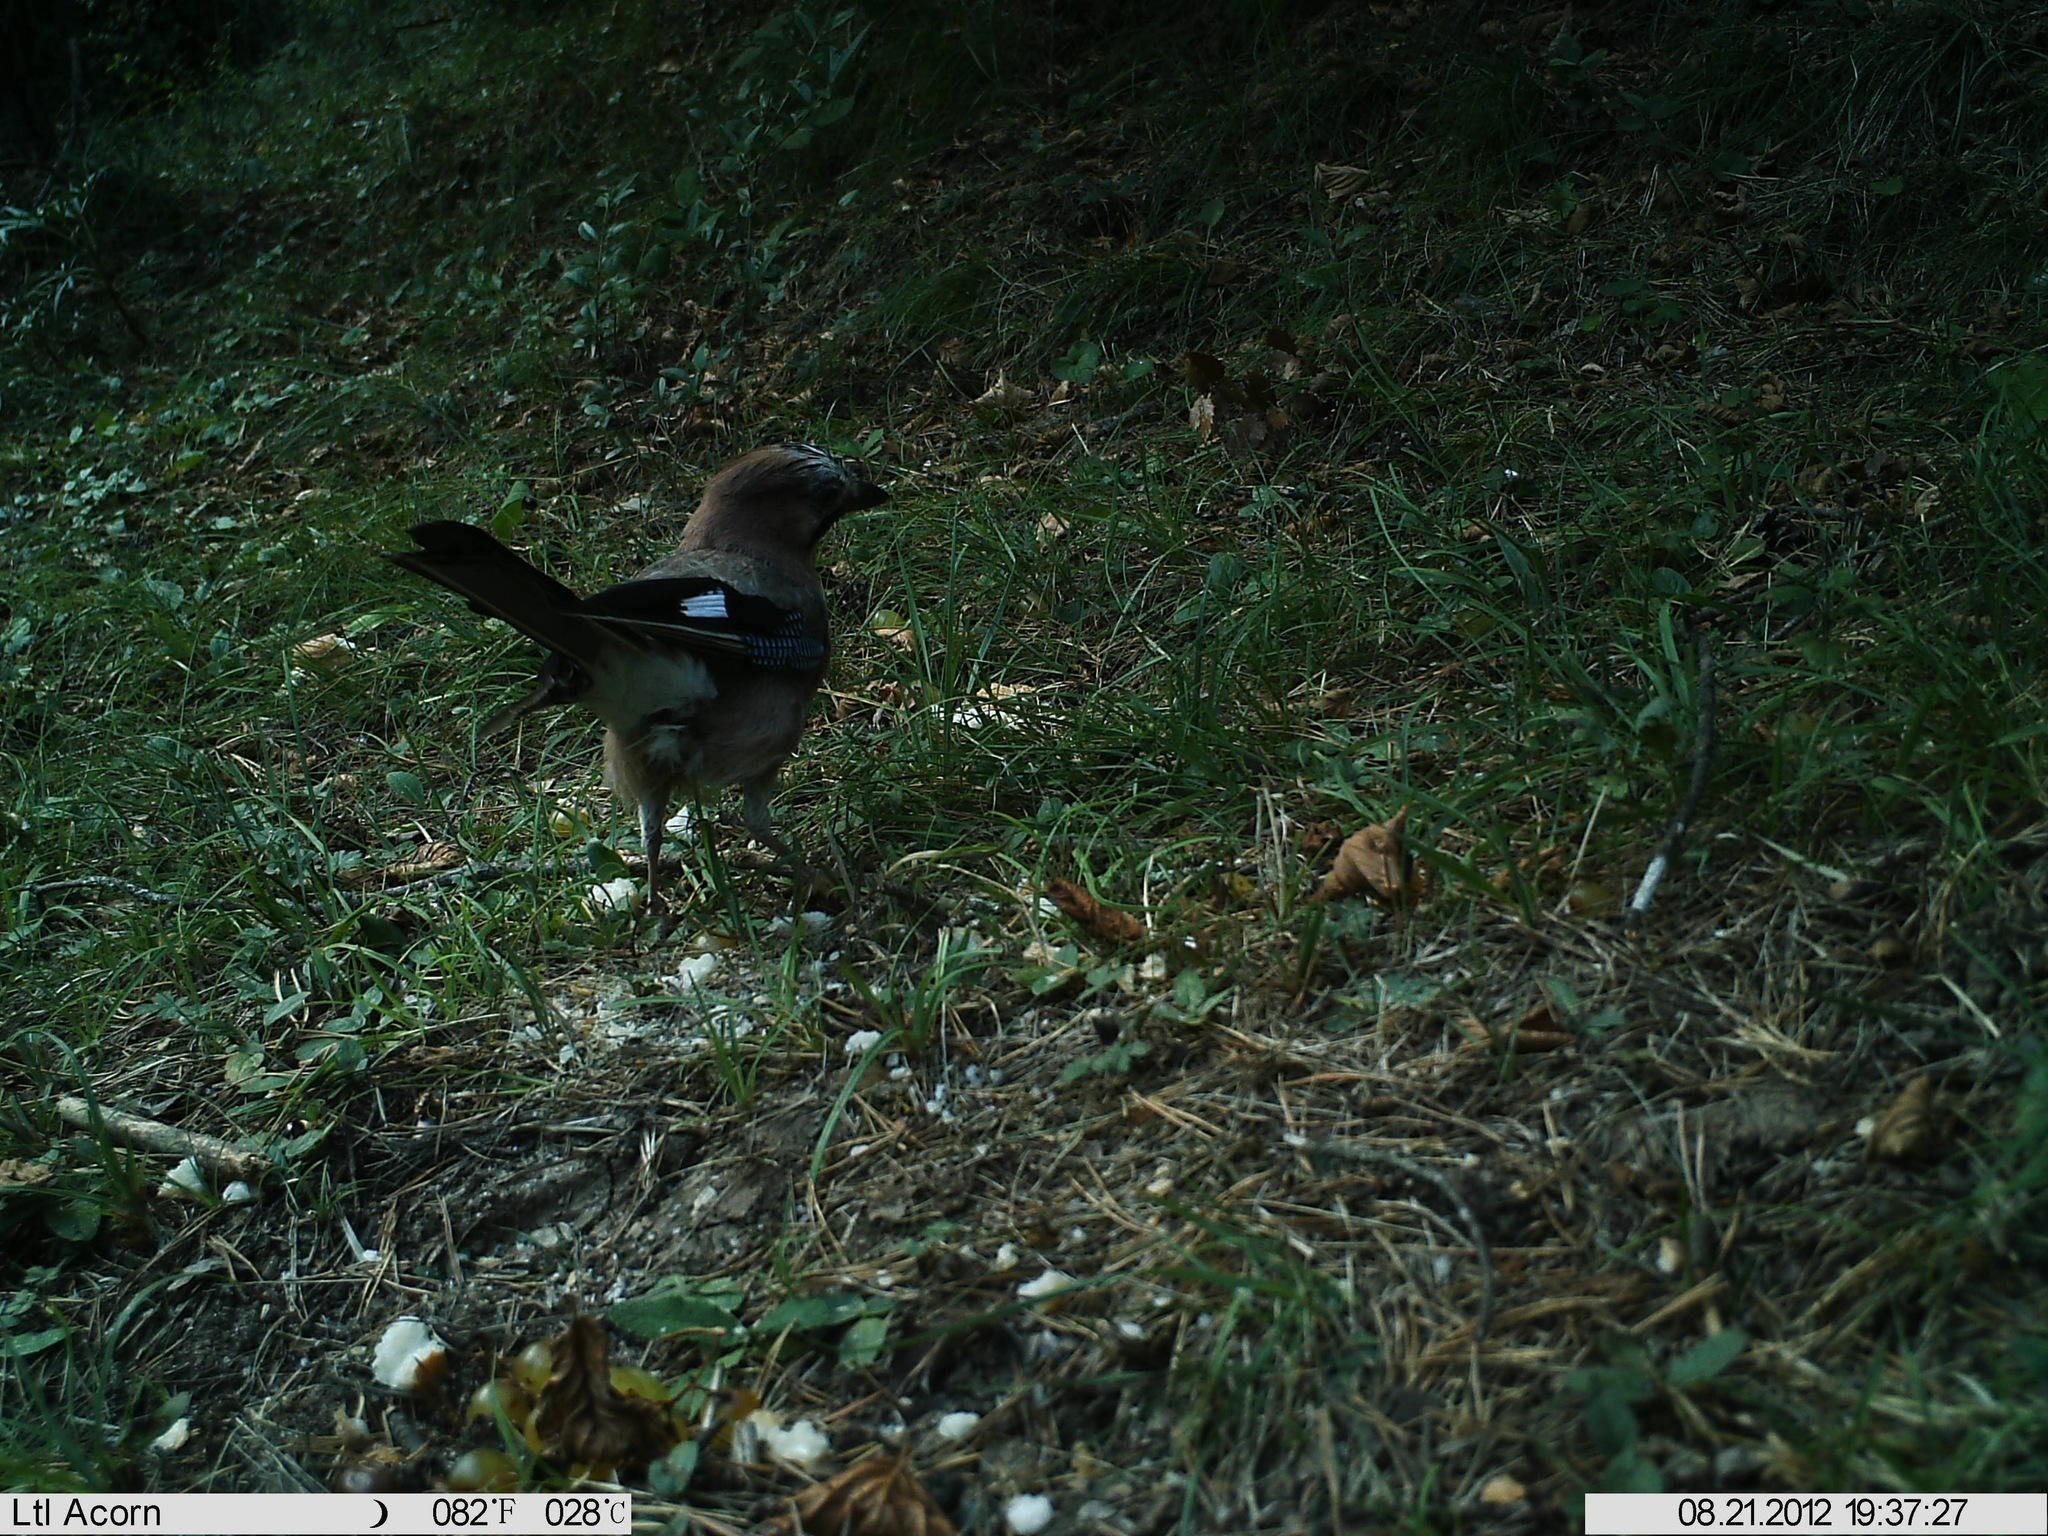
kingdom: Animalia
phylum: Chordata
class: Aves
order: Passeriformes
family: Corvidae
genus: Garrulus
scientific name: Garrulus glandarius
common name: Eurasian jay
